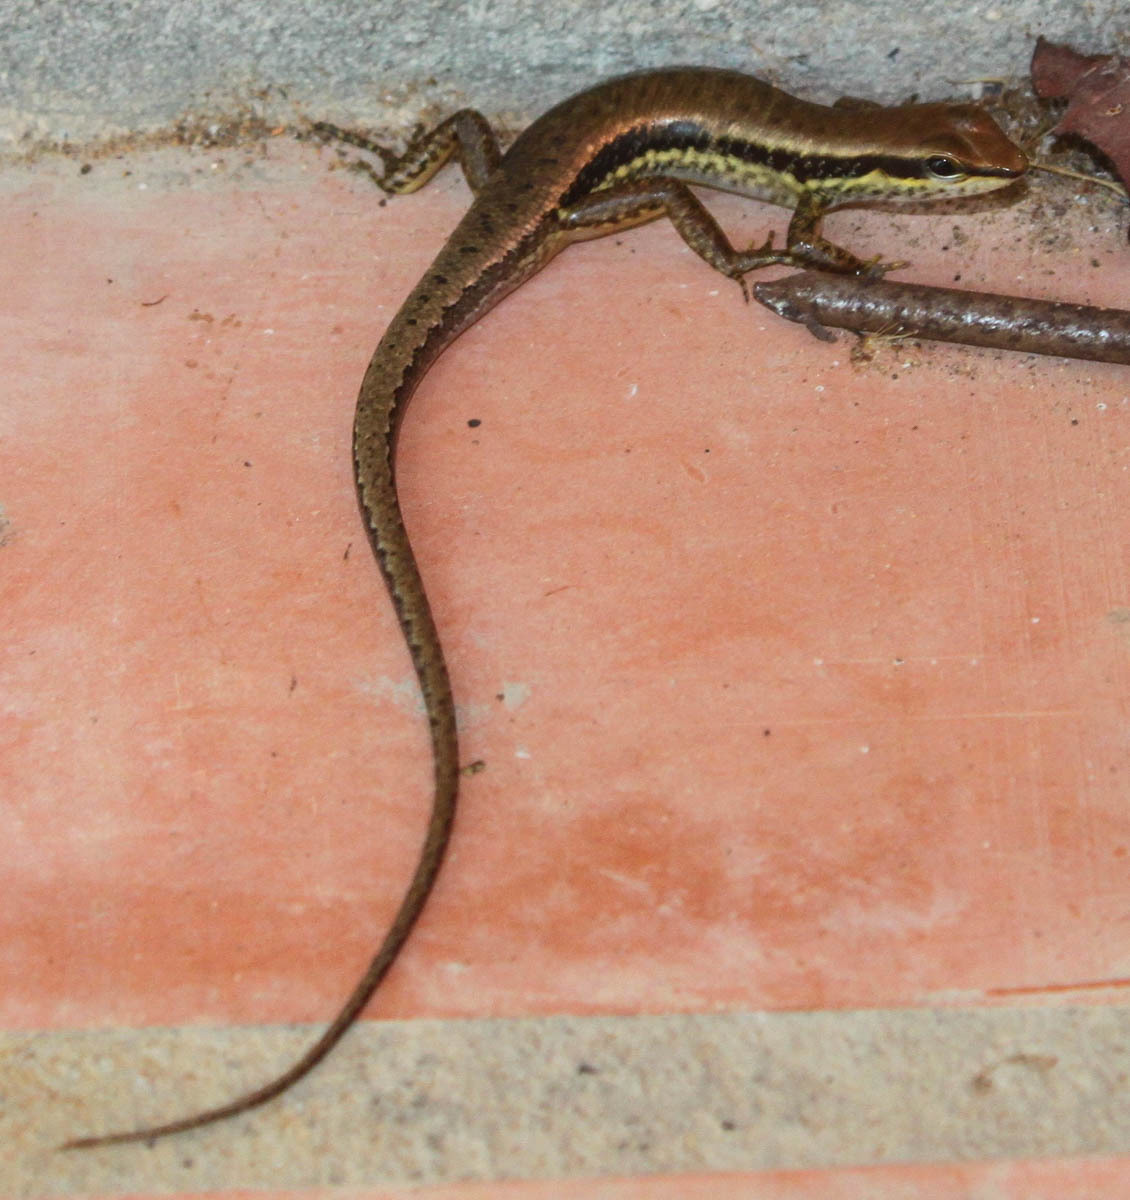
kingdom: Animalia
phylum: Chordata
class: Squamata
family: Scincidae
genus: Sphenomorphus
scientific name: Sphenomorphus maculatus
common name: Maculated forest skink
